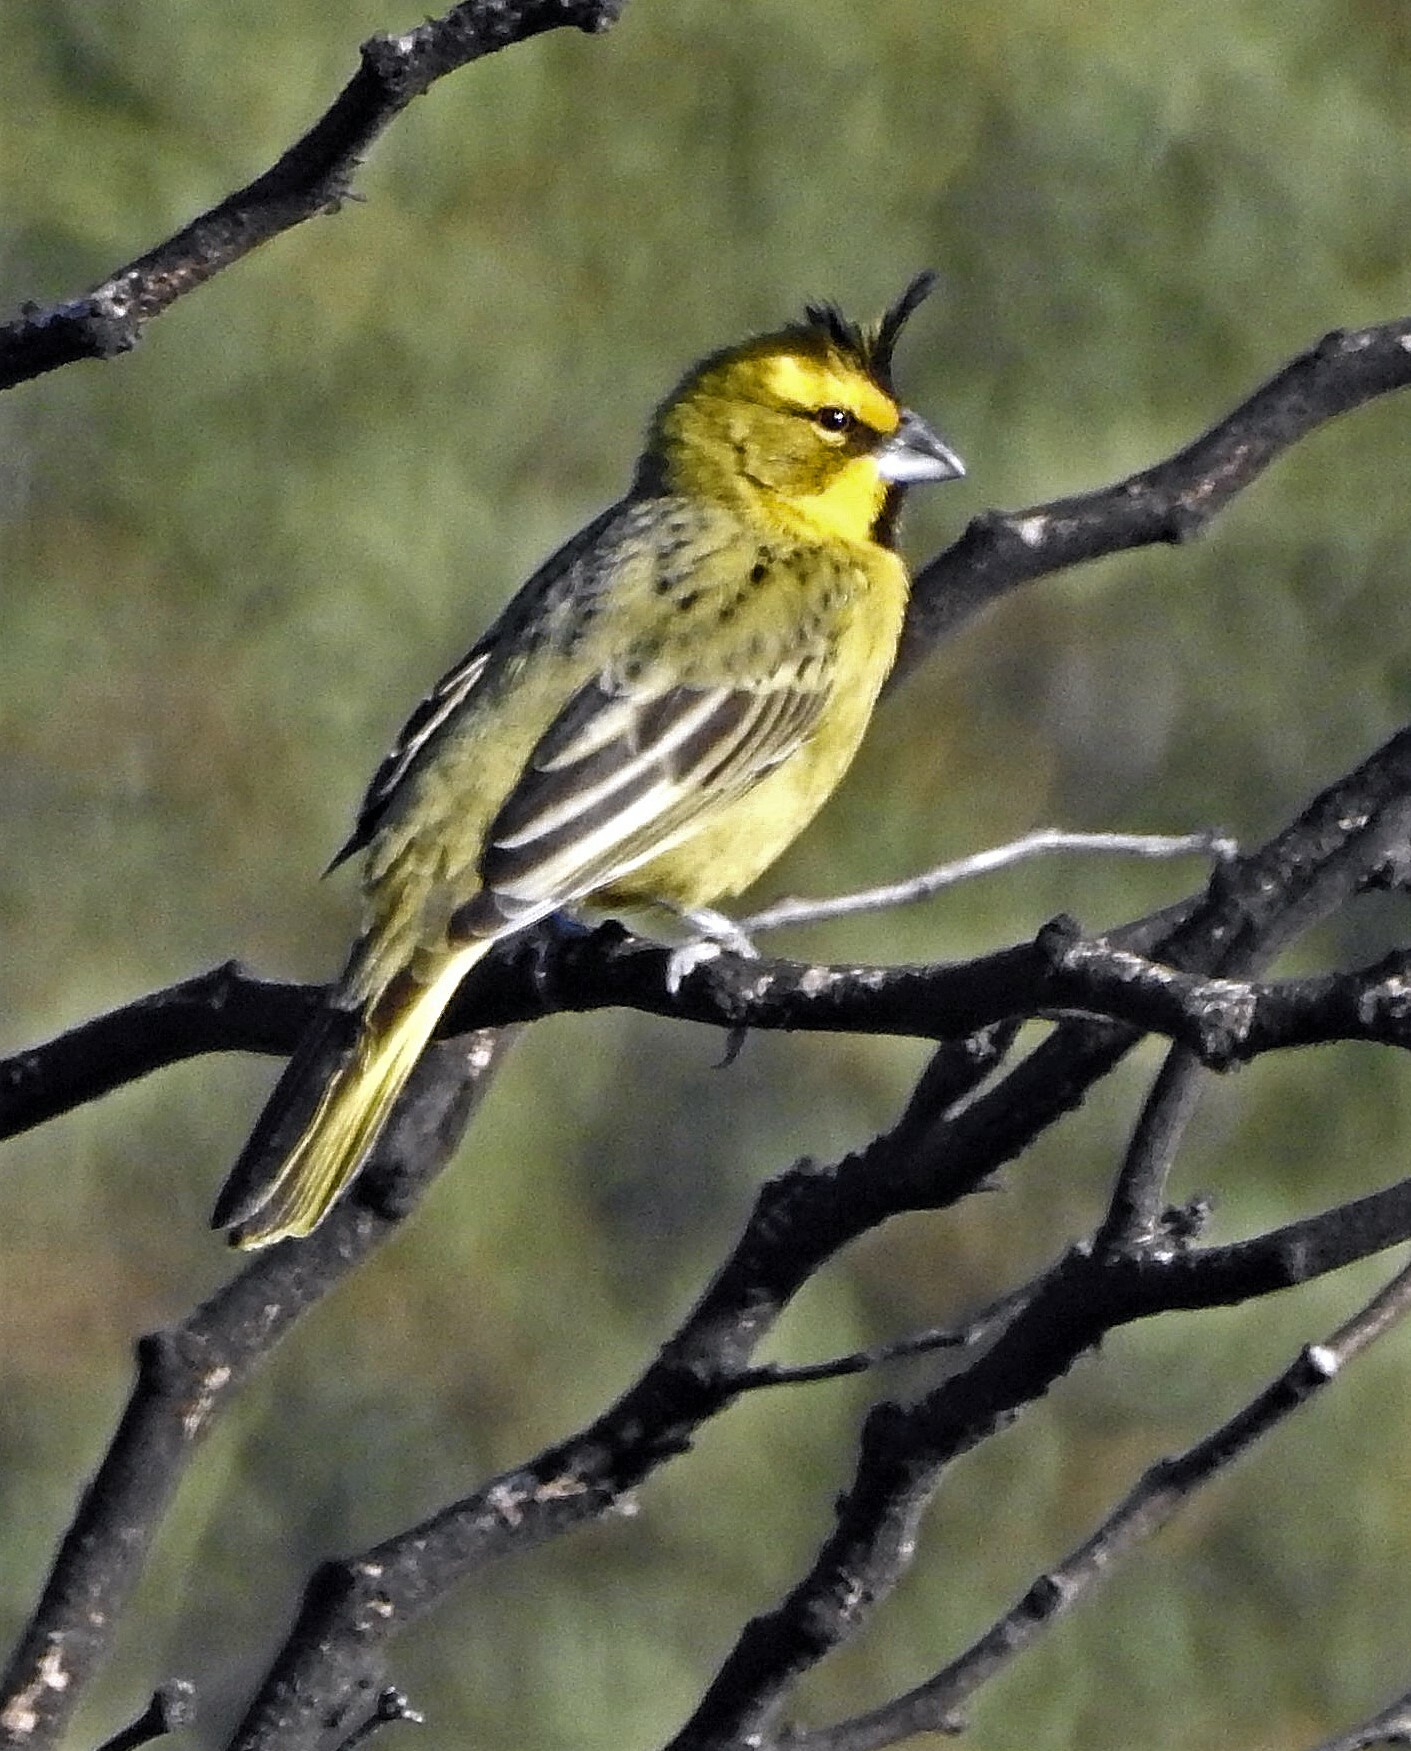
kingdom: Animalia
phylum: Chordata
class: Aves
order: Passeriformes
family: Thraupidae
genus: Gubernatrix
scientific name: Gubernatrix cristata
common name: Yellow cardinal
